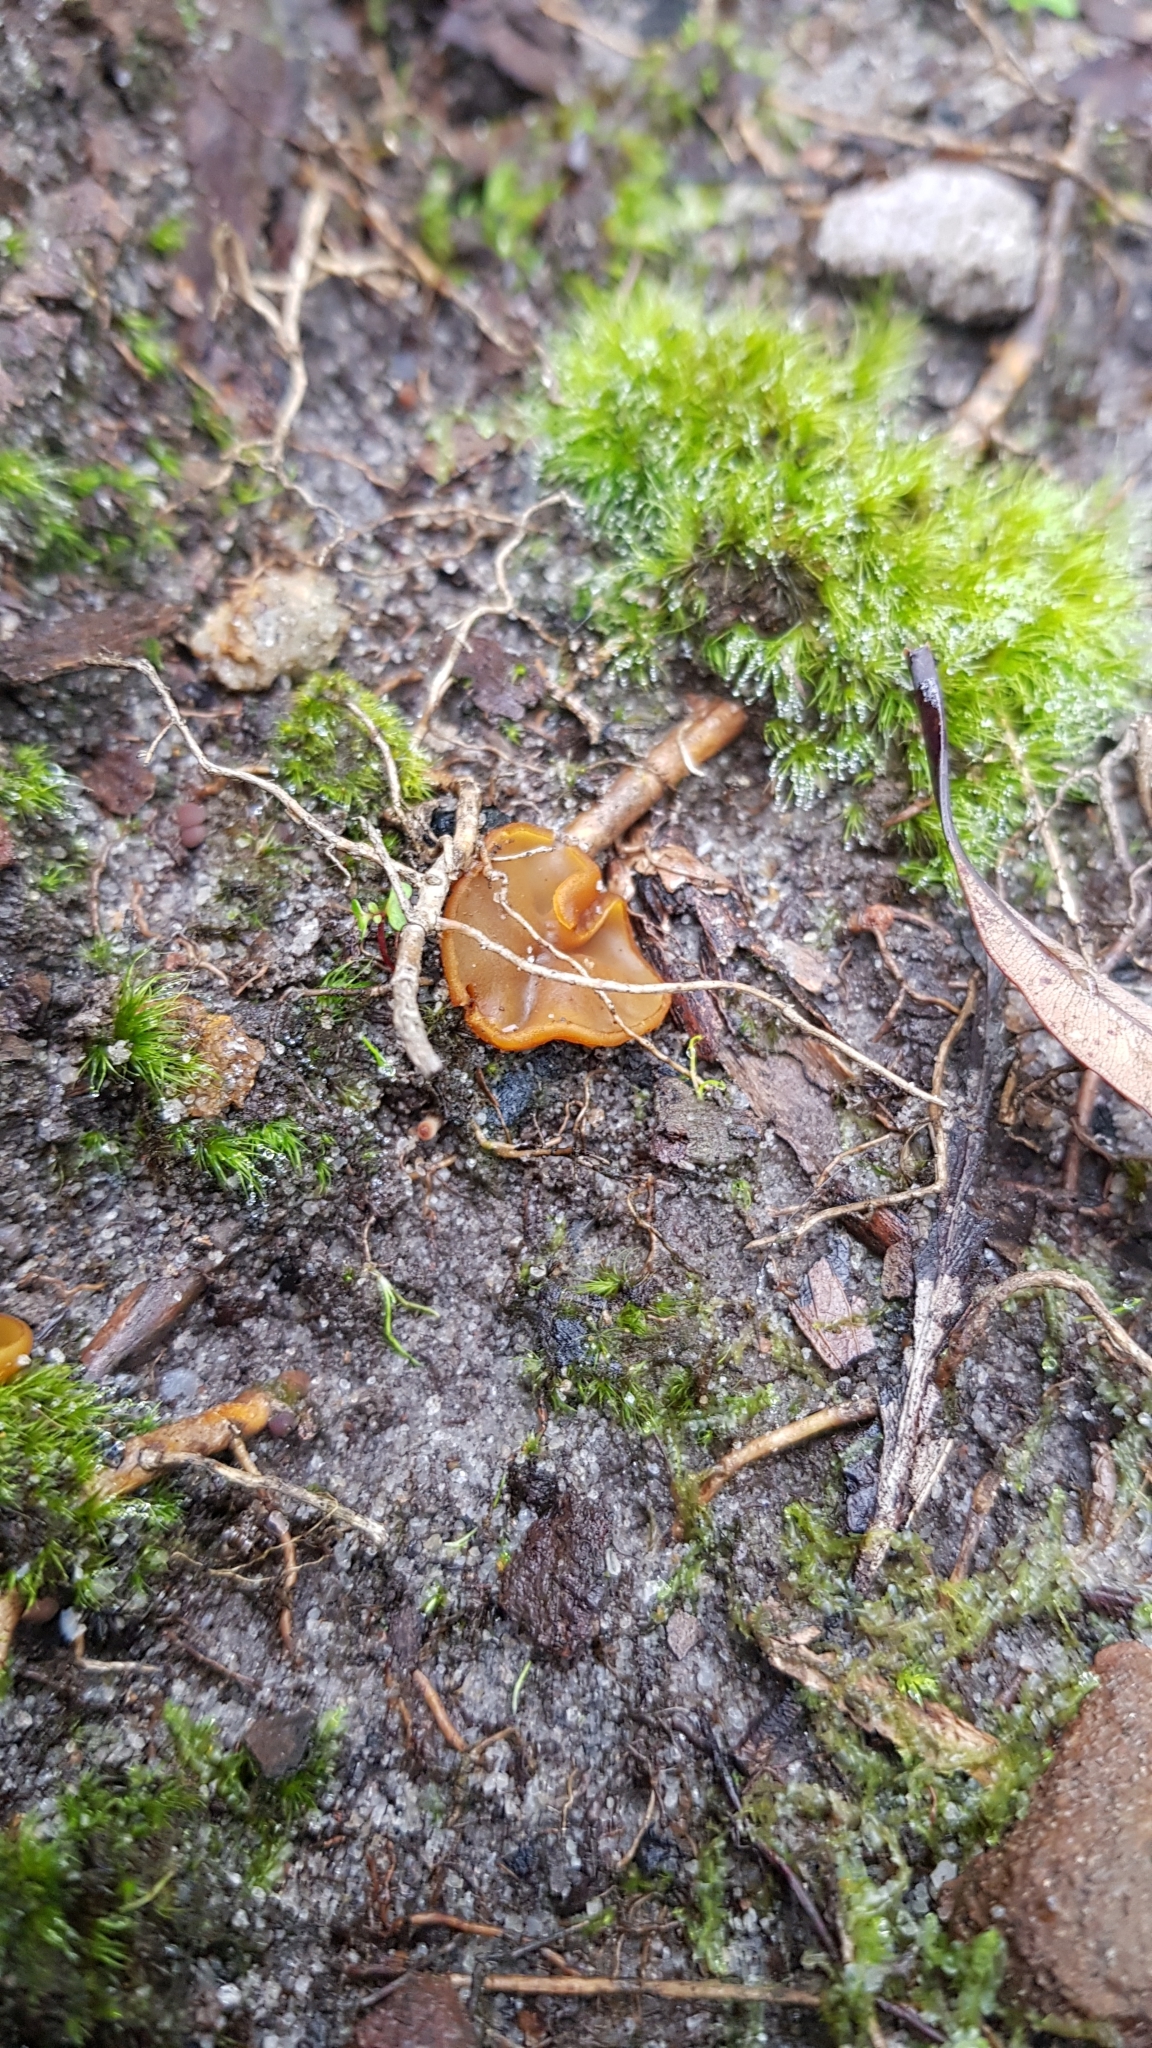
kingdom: Fungi
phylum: Ascomycota
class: Pezizomycetes
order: Pezizales
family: Pyronemataceae
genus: Aleurina
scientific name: Aleurina ferruginea
